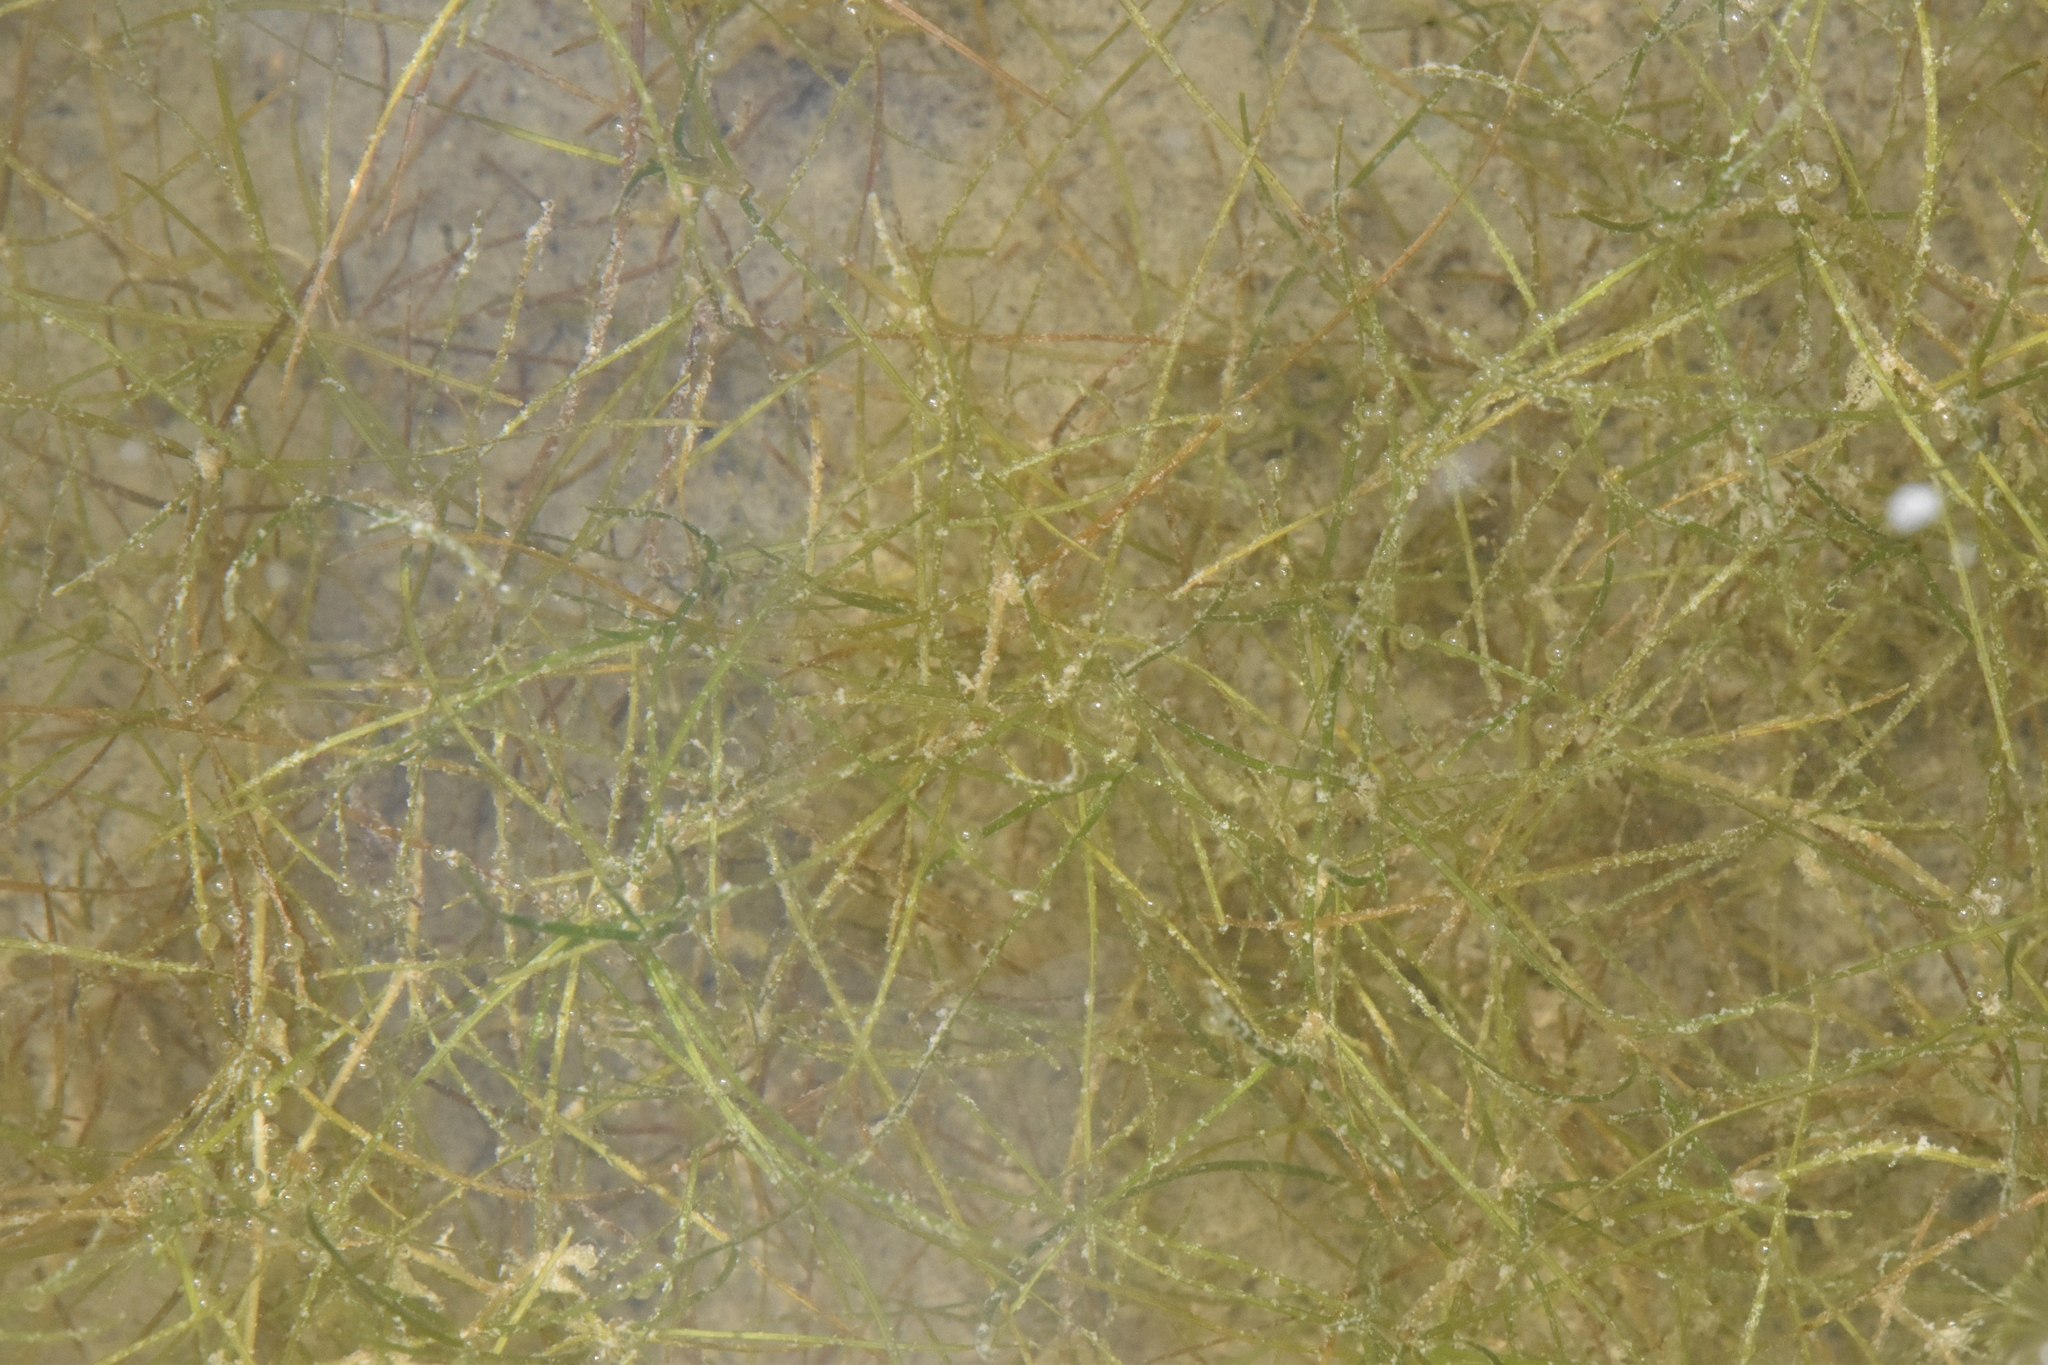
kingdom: Plantae
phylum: Tracheophyta
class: Liliopsida
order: Alismatales
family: Potamogetonaceae
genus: Zannichellia
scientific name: Zannichellia palustris
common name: Horned pondweed
